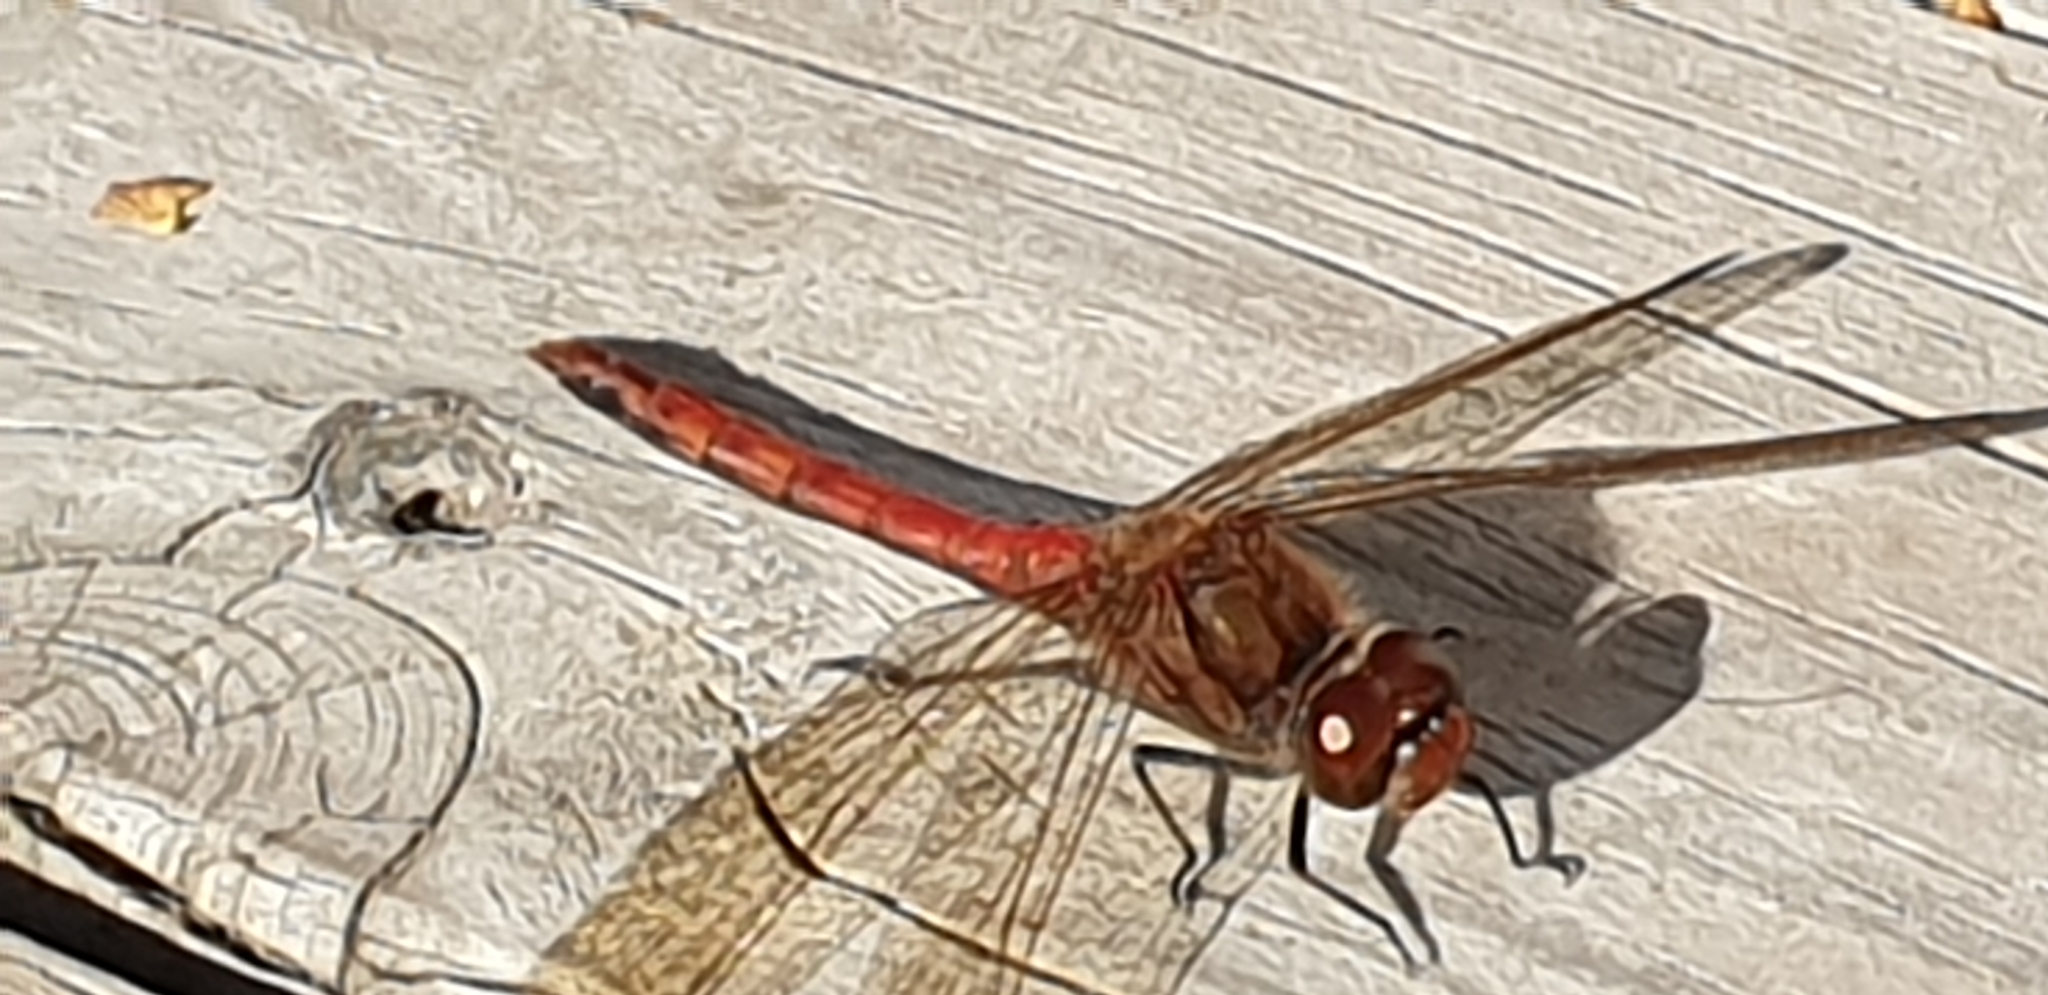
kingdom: Animalia
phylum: Arthropoda
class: Insecta
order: Odonata
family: Libellulidae
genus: Sympetrum
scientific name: Sympetrum vulgatum
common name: Vagrant darter
